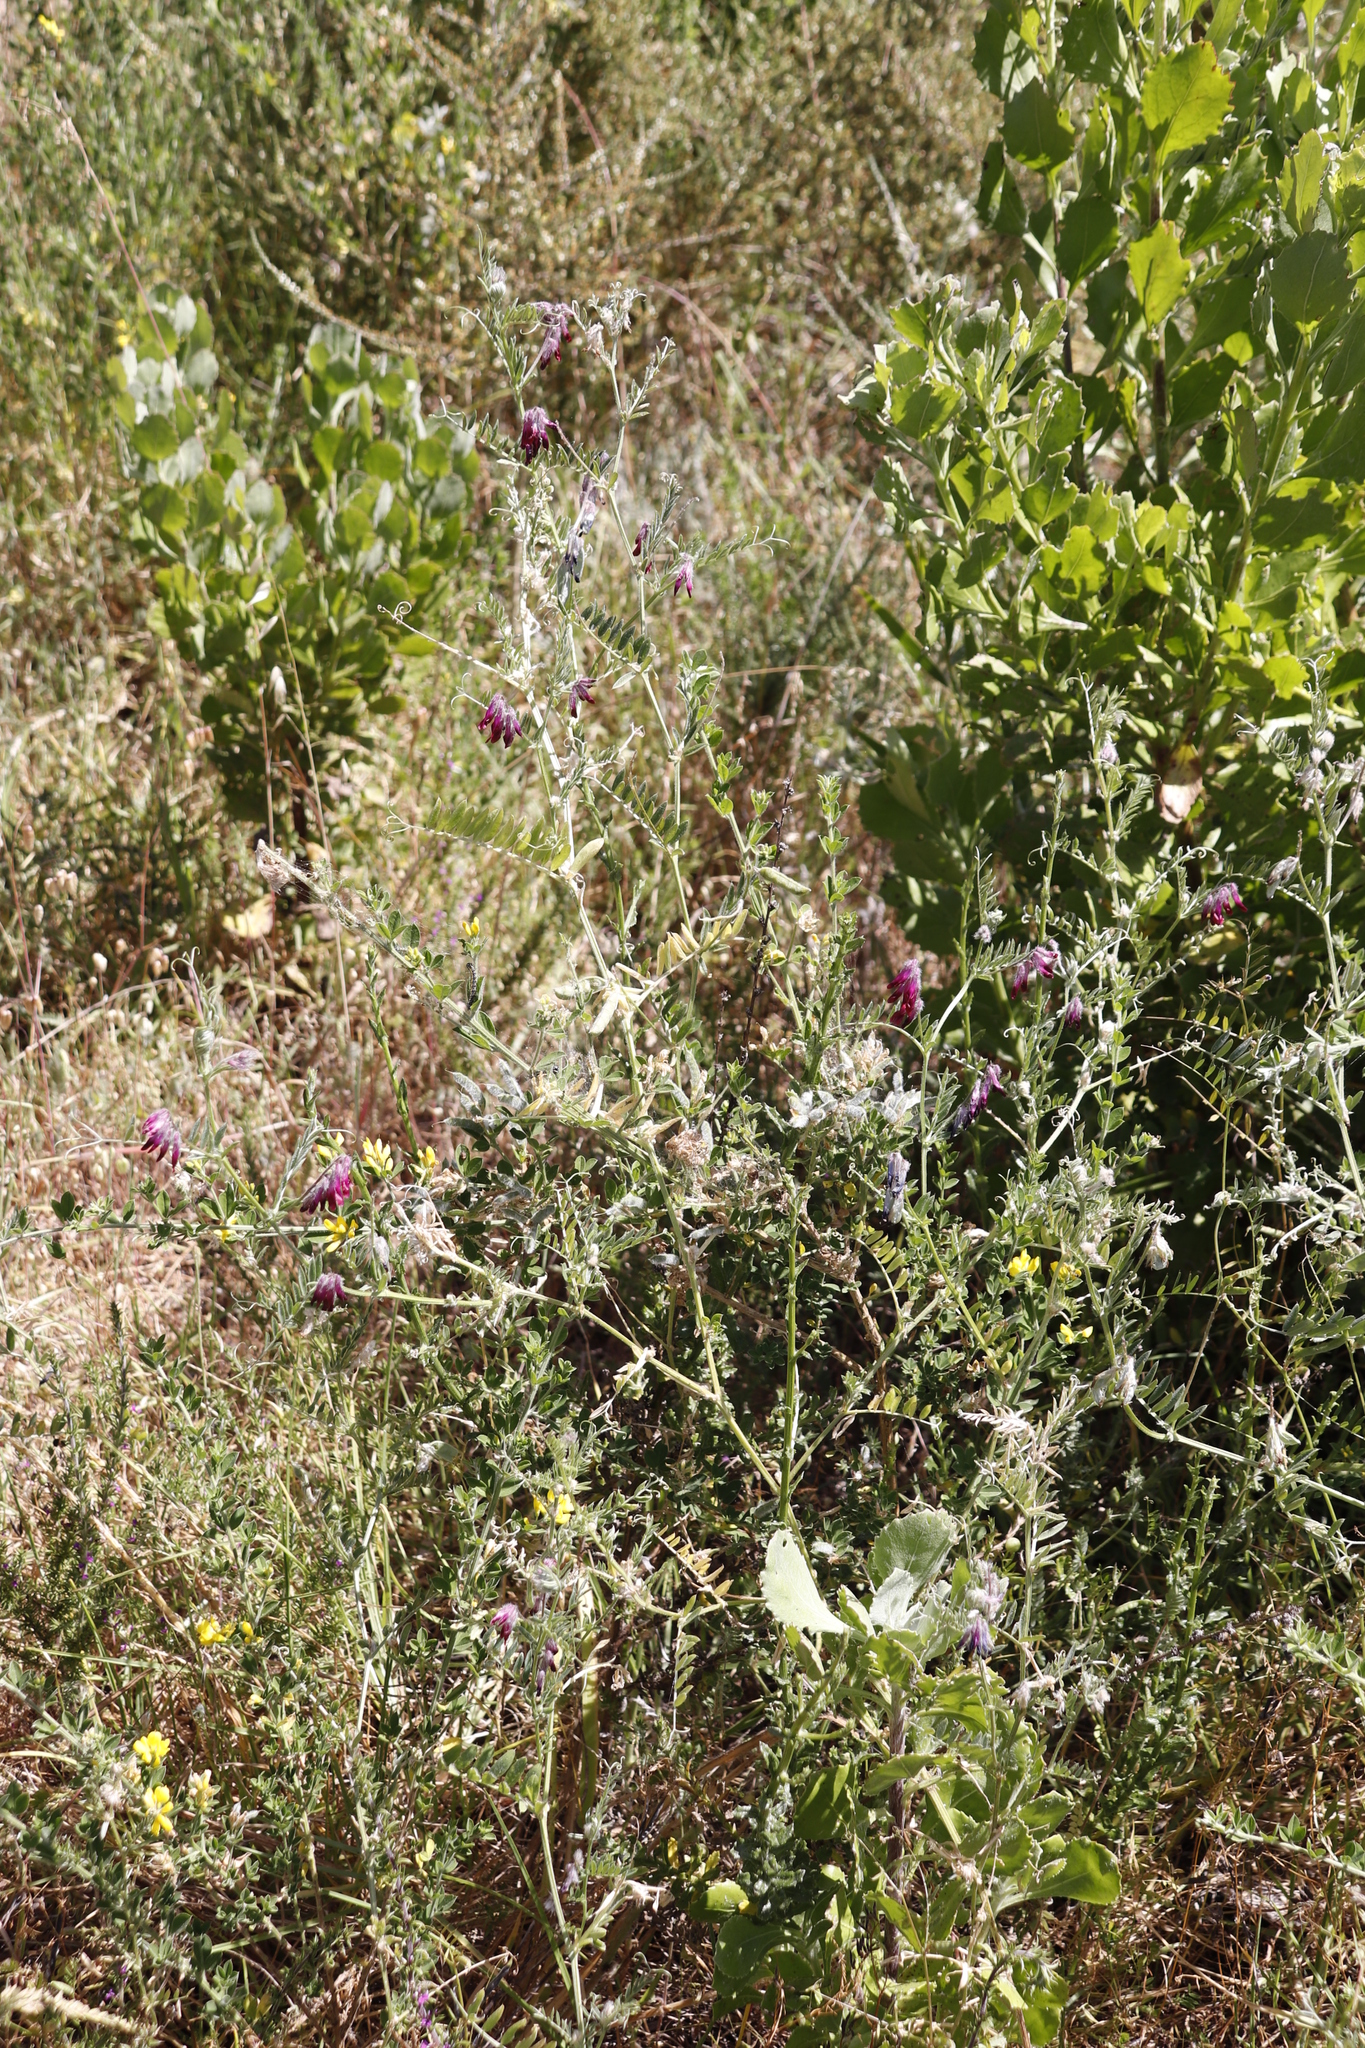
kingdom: Plantae
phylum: Tracheophyta
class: Magnoliopsida
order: Fabales
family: Fabaceae
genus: Vicia
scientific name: Vicia benghalensis
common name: Purple vetch
